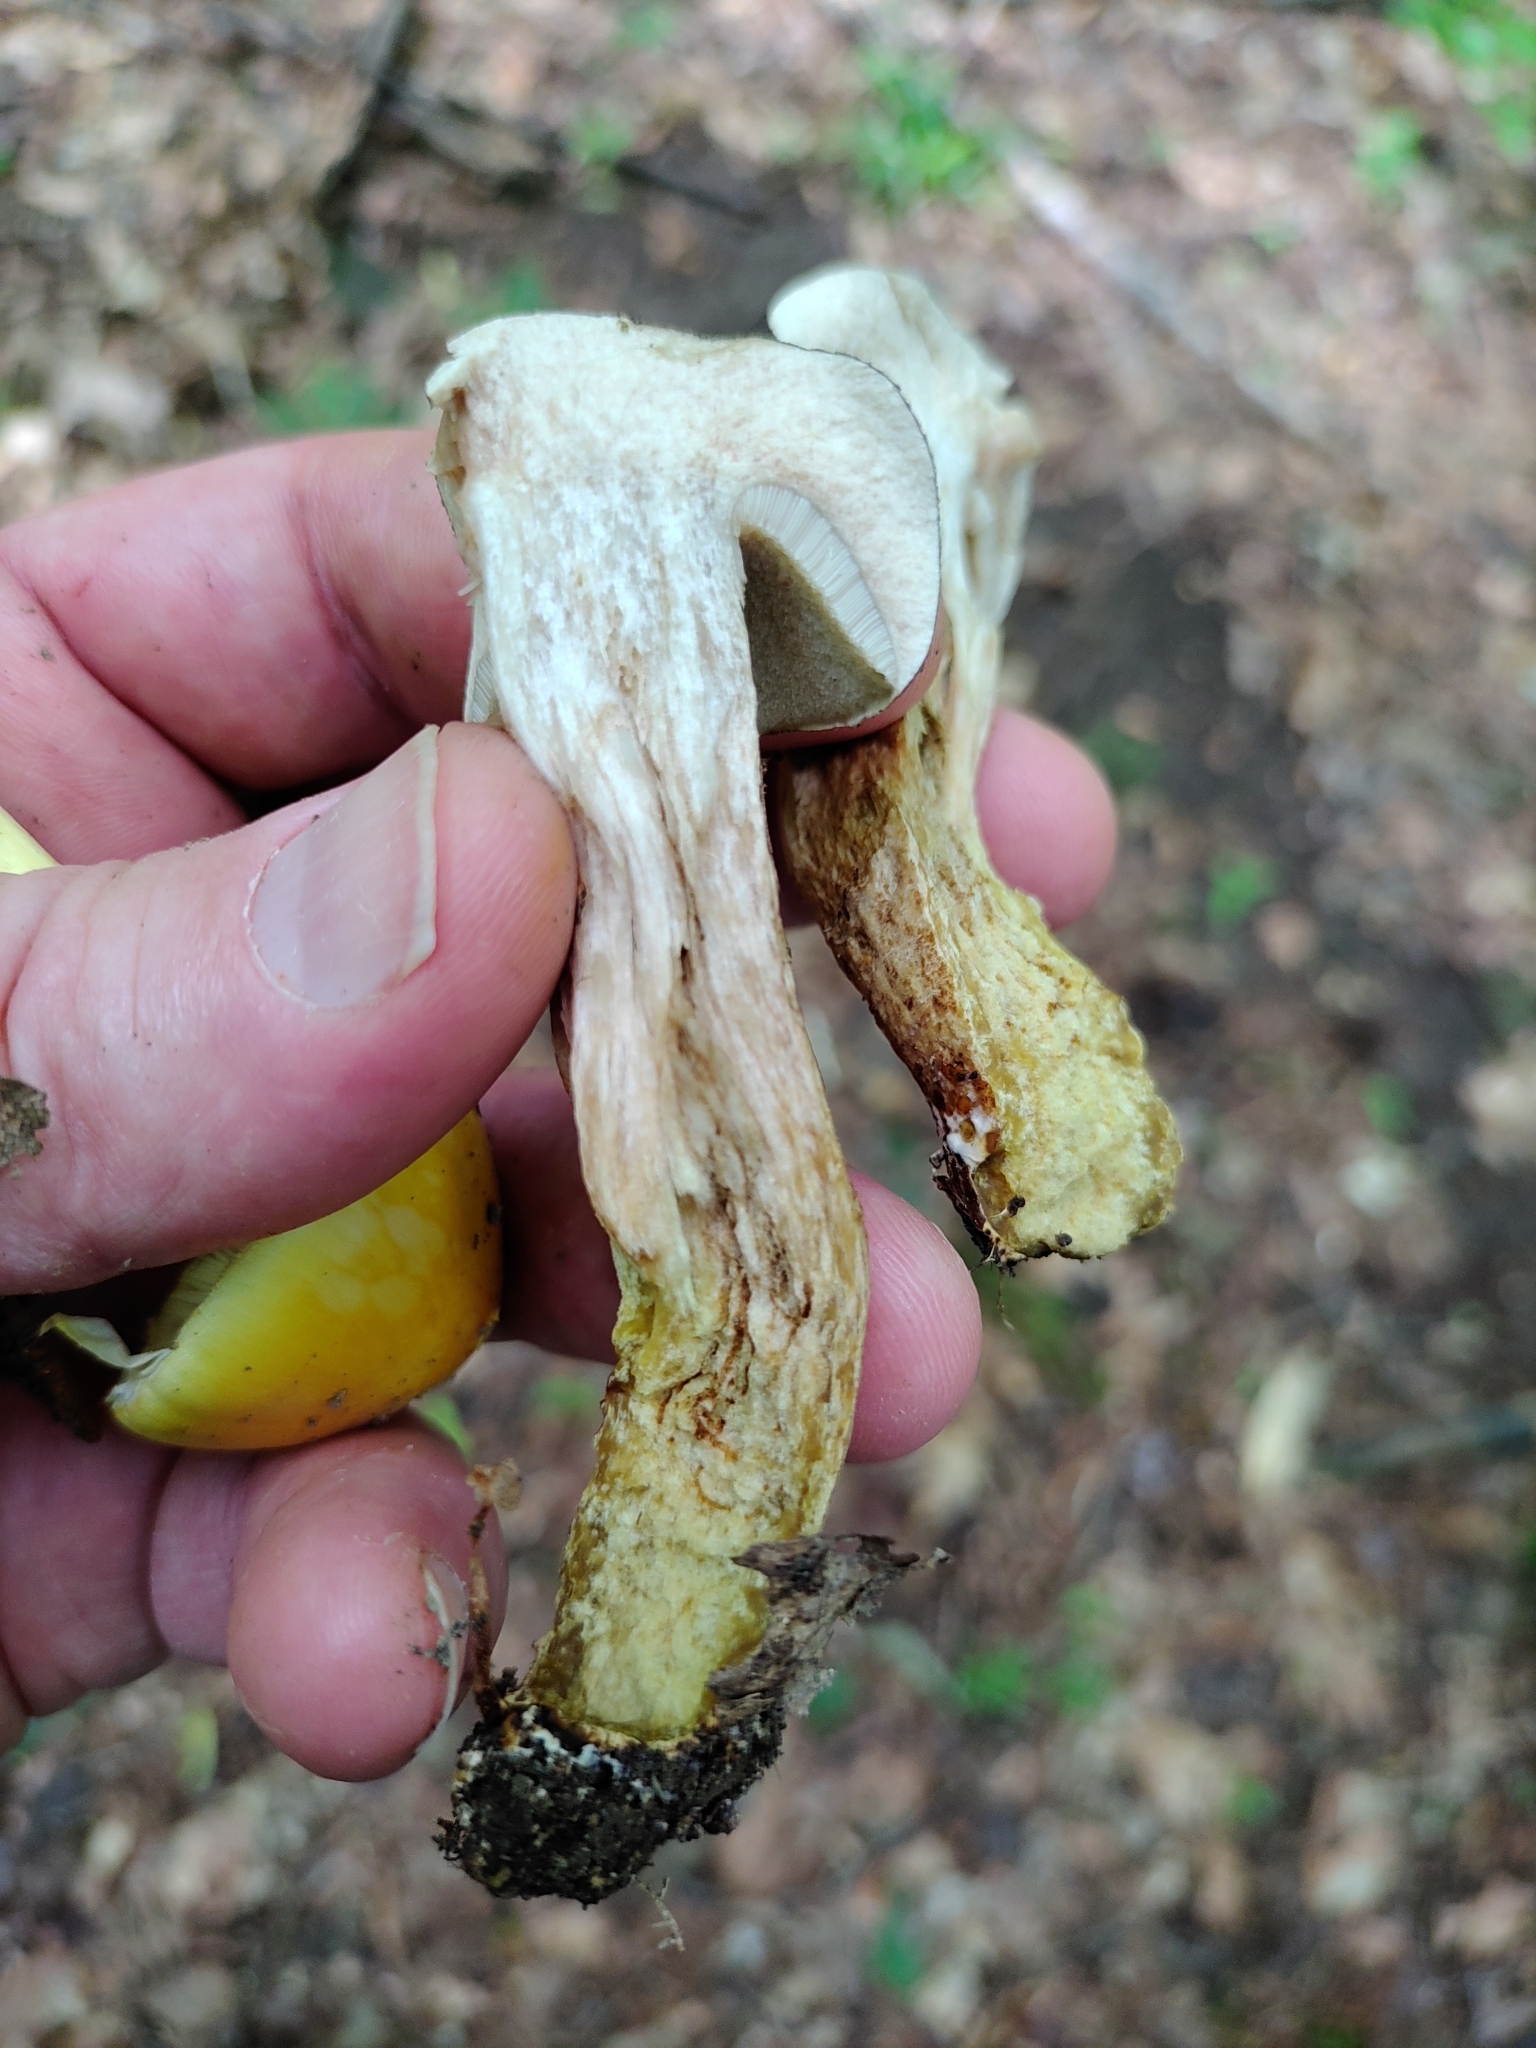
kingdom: Fungi
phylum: Basidiomycota
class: Agaricomycetes
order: Boletales
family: Boletaceae
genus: Retiboletus
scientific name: Retiboletus griseus
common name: Grey bolete
